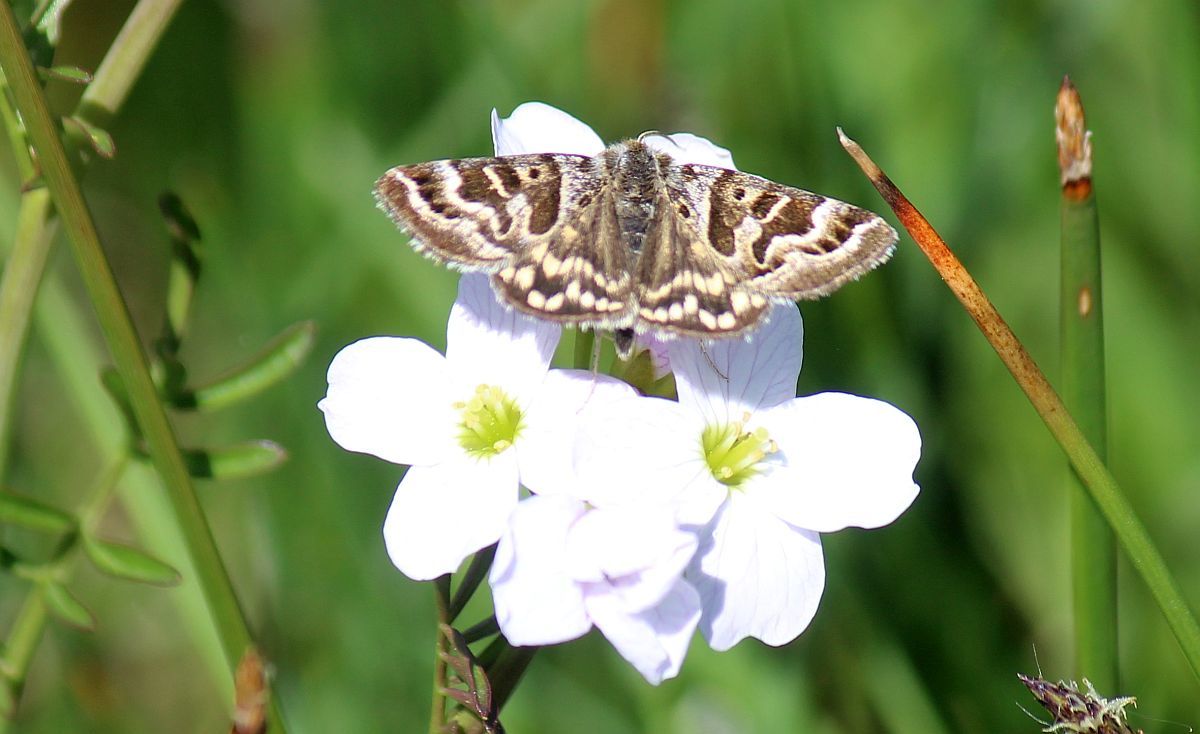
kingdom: Animalia
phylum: Arthropoda
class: Insecta
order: Lepidoptera
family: Erebidae
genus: Callistege
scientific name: Callistege mi
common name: Mother shipton
